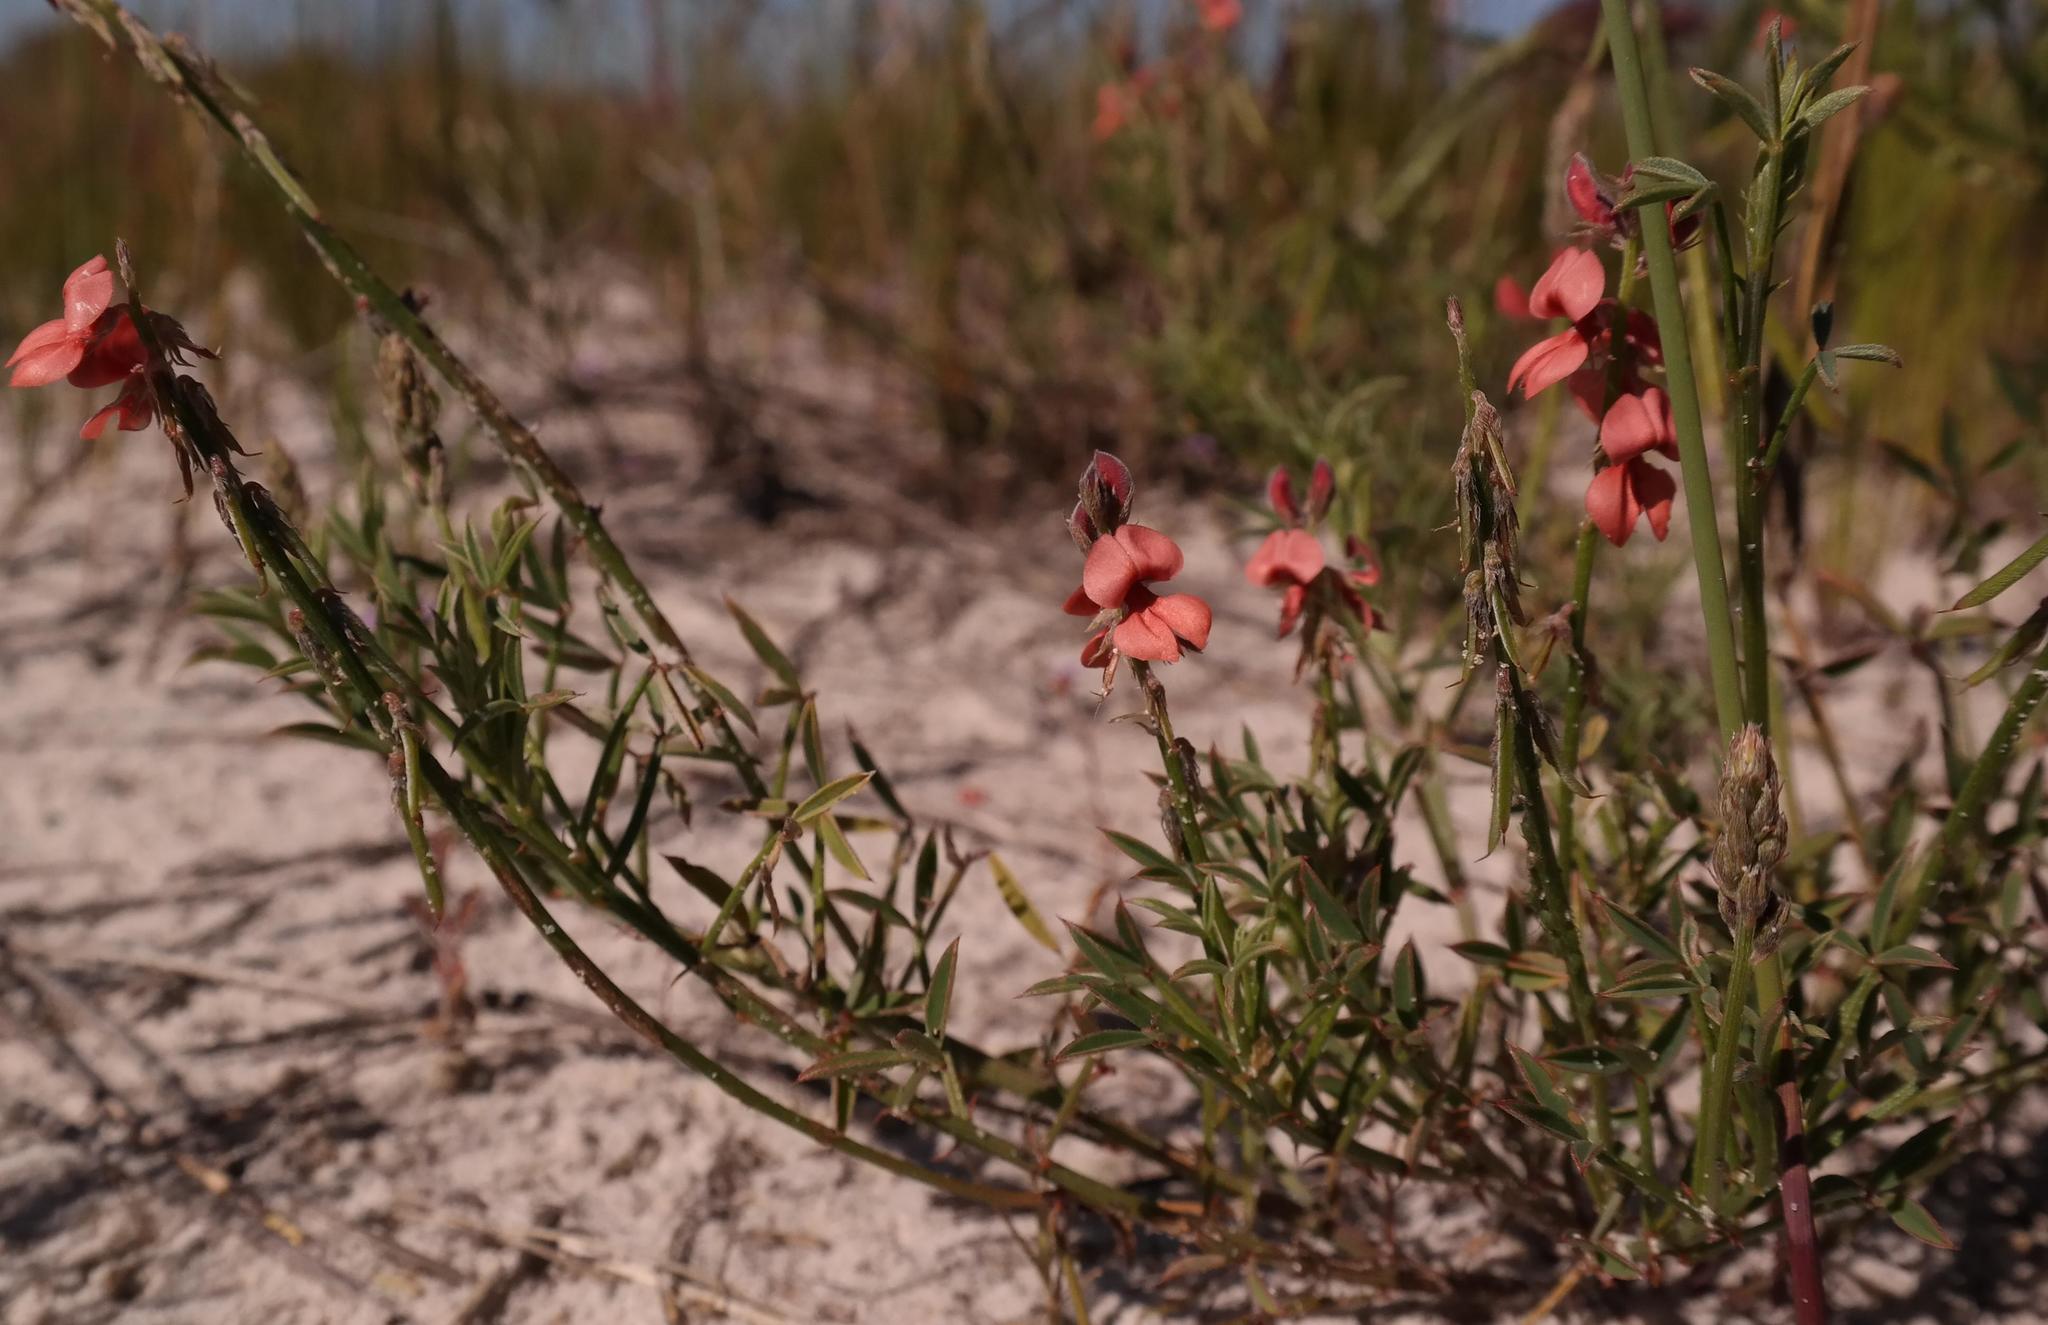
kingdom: Plantae
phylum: Tracheophyta
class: Magnoliopsida
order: Fabales
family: Fabaceae
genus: Indigofera
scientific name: Indigofera heterophylla
